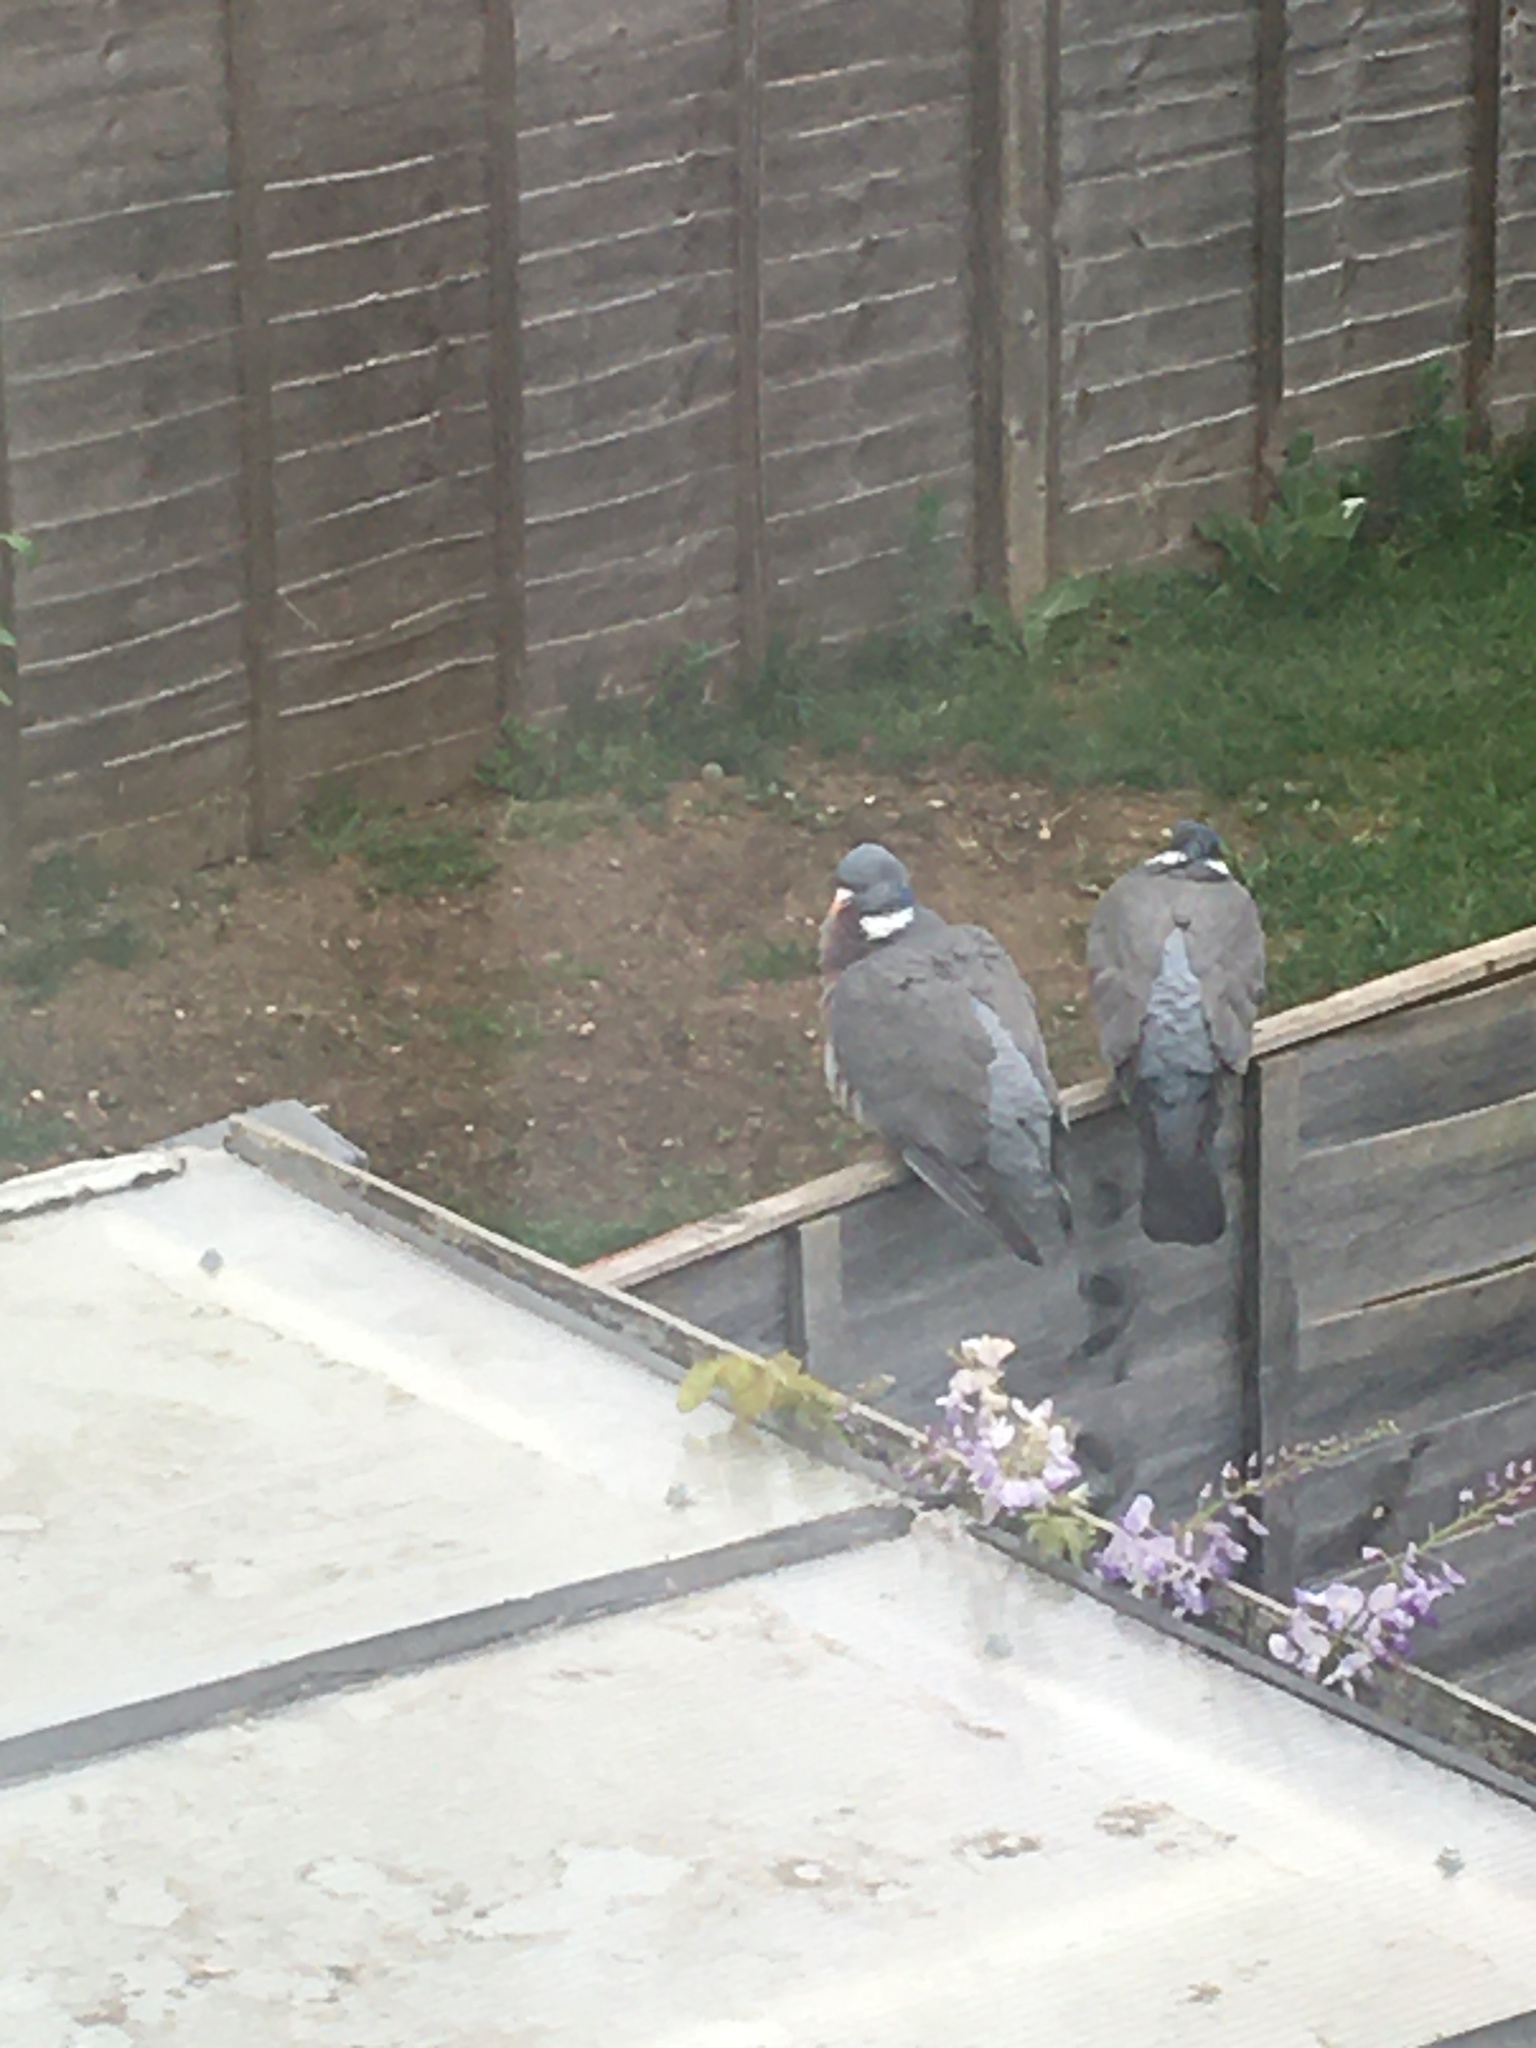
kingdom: Animalia
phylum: Chordata
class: Aves
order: Columbiformes
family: Columbidae
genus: Columba
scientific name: Columba palumbus
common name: Common wood pigeon
